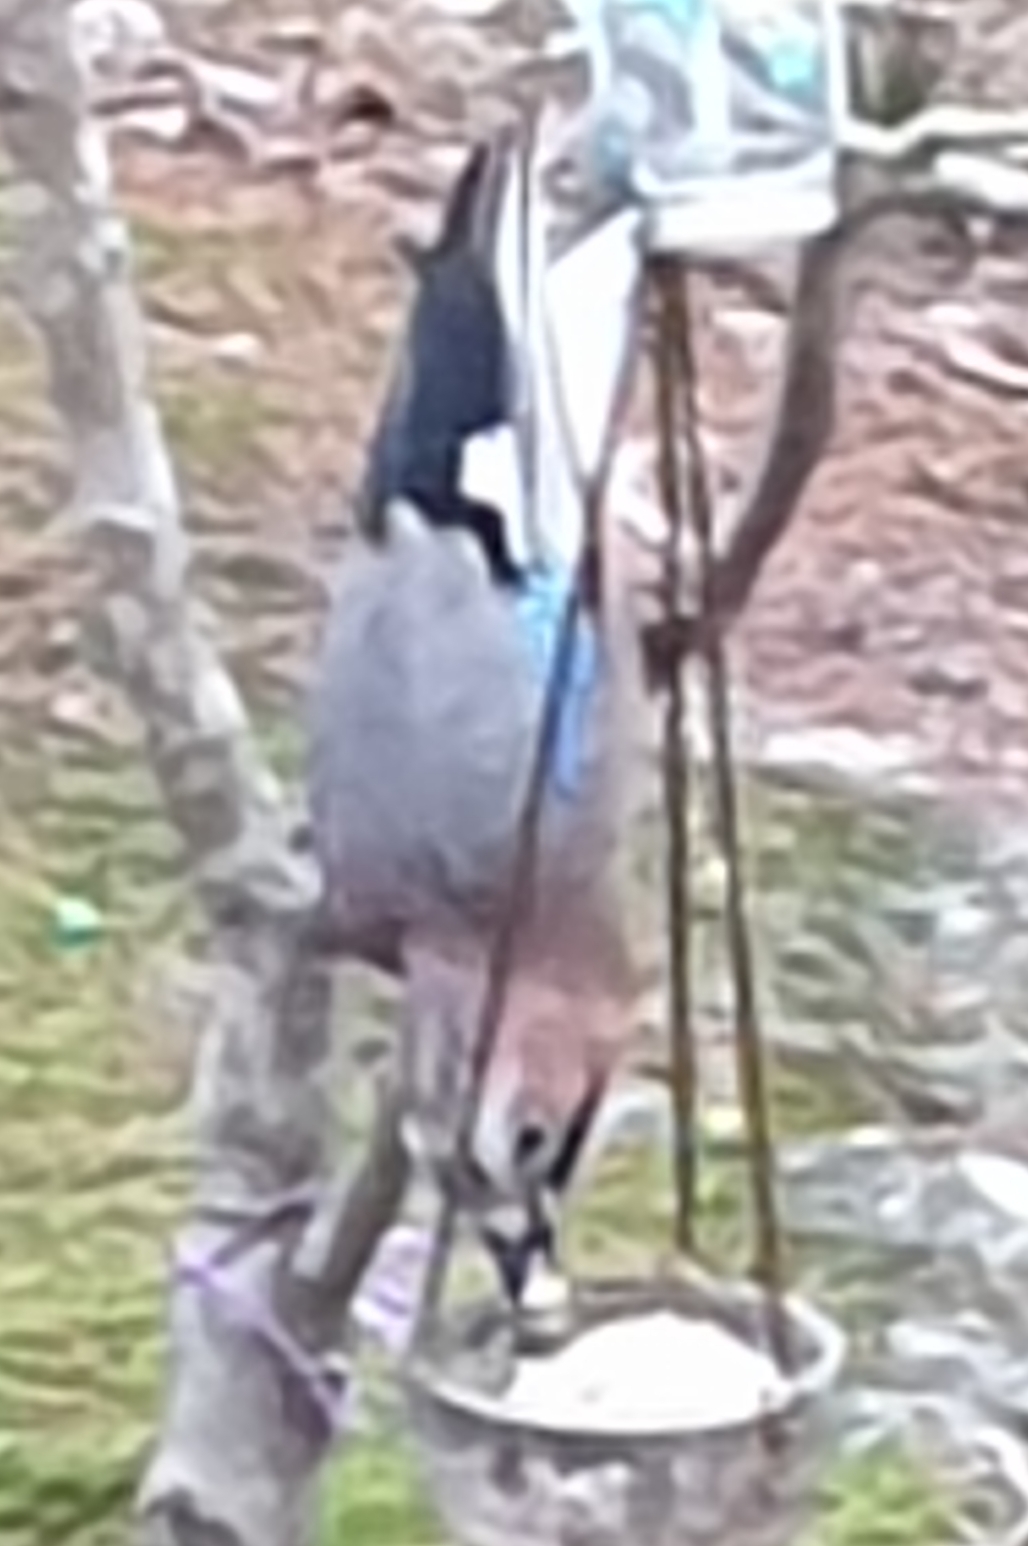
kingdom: Animalia
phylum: Chordata
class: Aves
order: Passeriformes
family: Corvidae
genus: Garrulus
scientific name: Garrulus glandarius
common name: Eurasian jay
